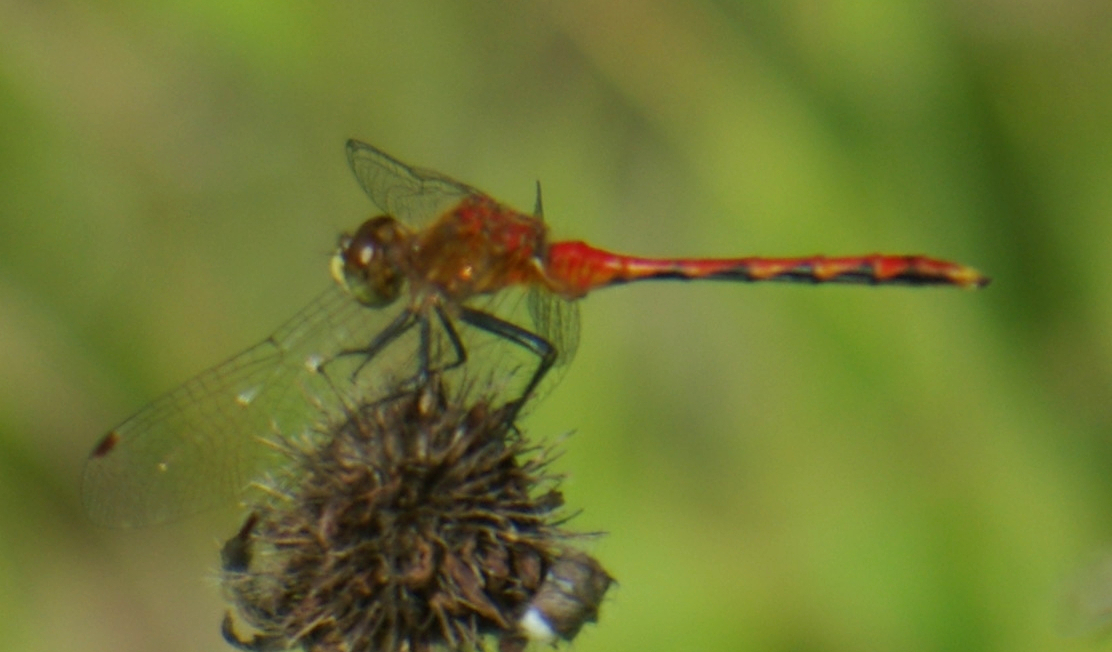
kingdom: Animalia
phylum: Arthropoda
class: Insecta
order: Odonata
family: Libellulidae
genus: Sympetrum
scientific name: Sympetrum obtrusum
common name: White-faced meadowhawk
